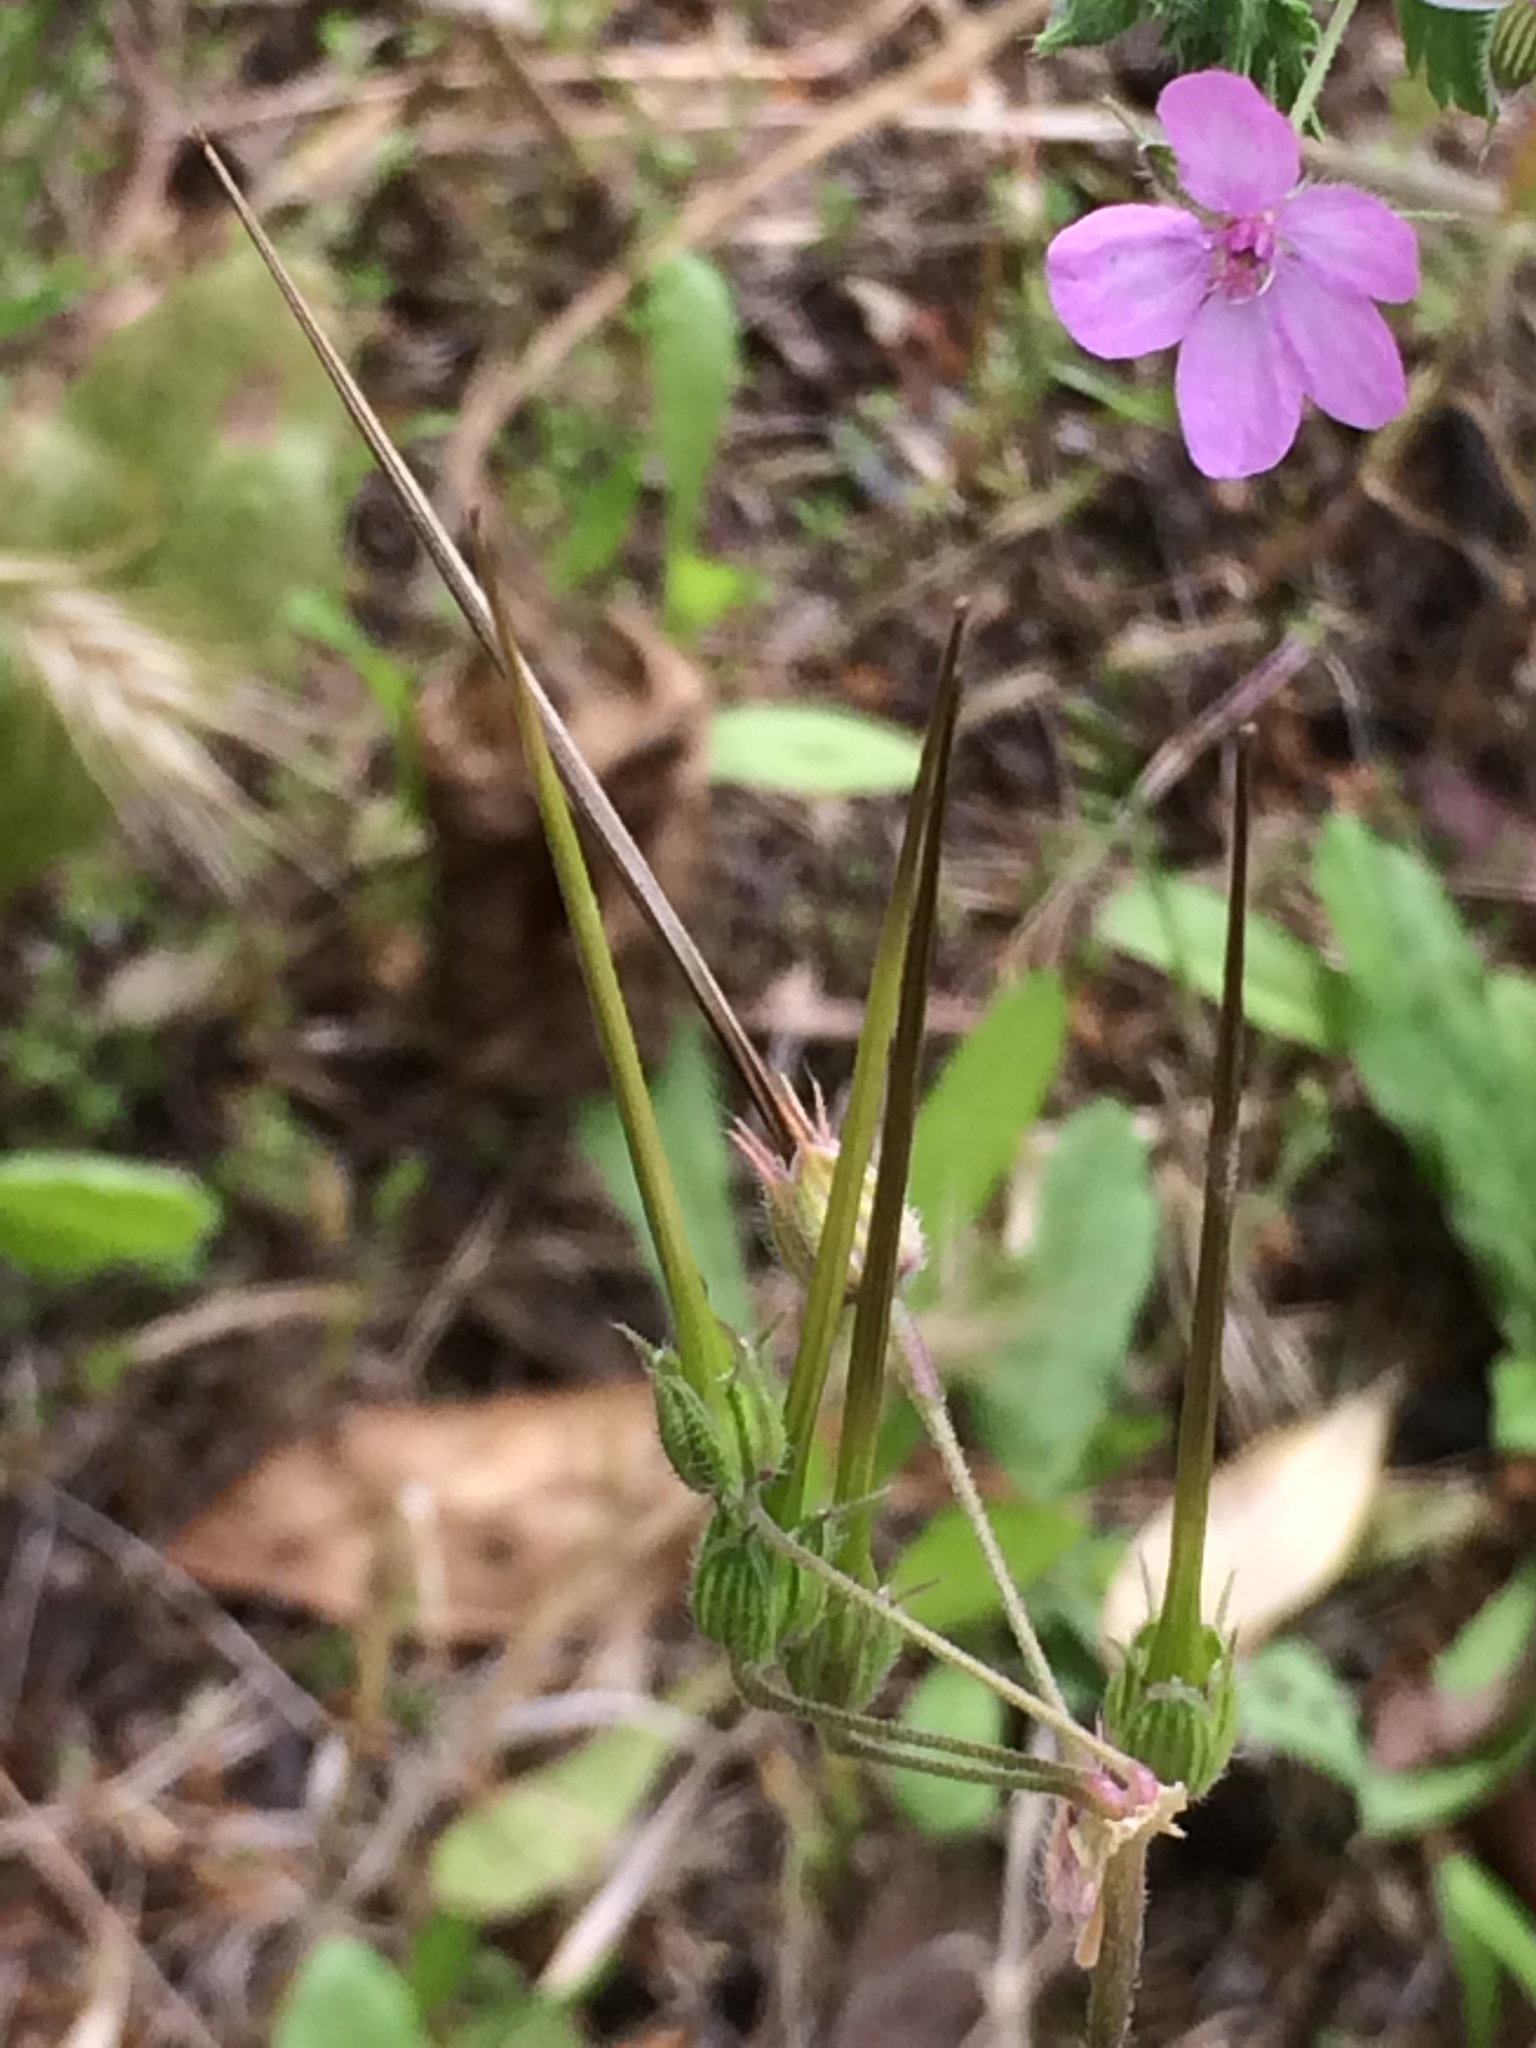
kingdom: Plantae
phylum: Tracheophyta
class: Magnoliopsida
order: Geraniales
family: Geraniaceae
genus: Geranium
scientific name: Geranium rotundifolium
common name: Round-leaved crane's-bill
